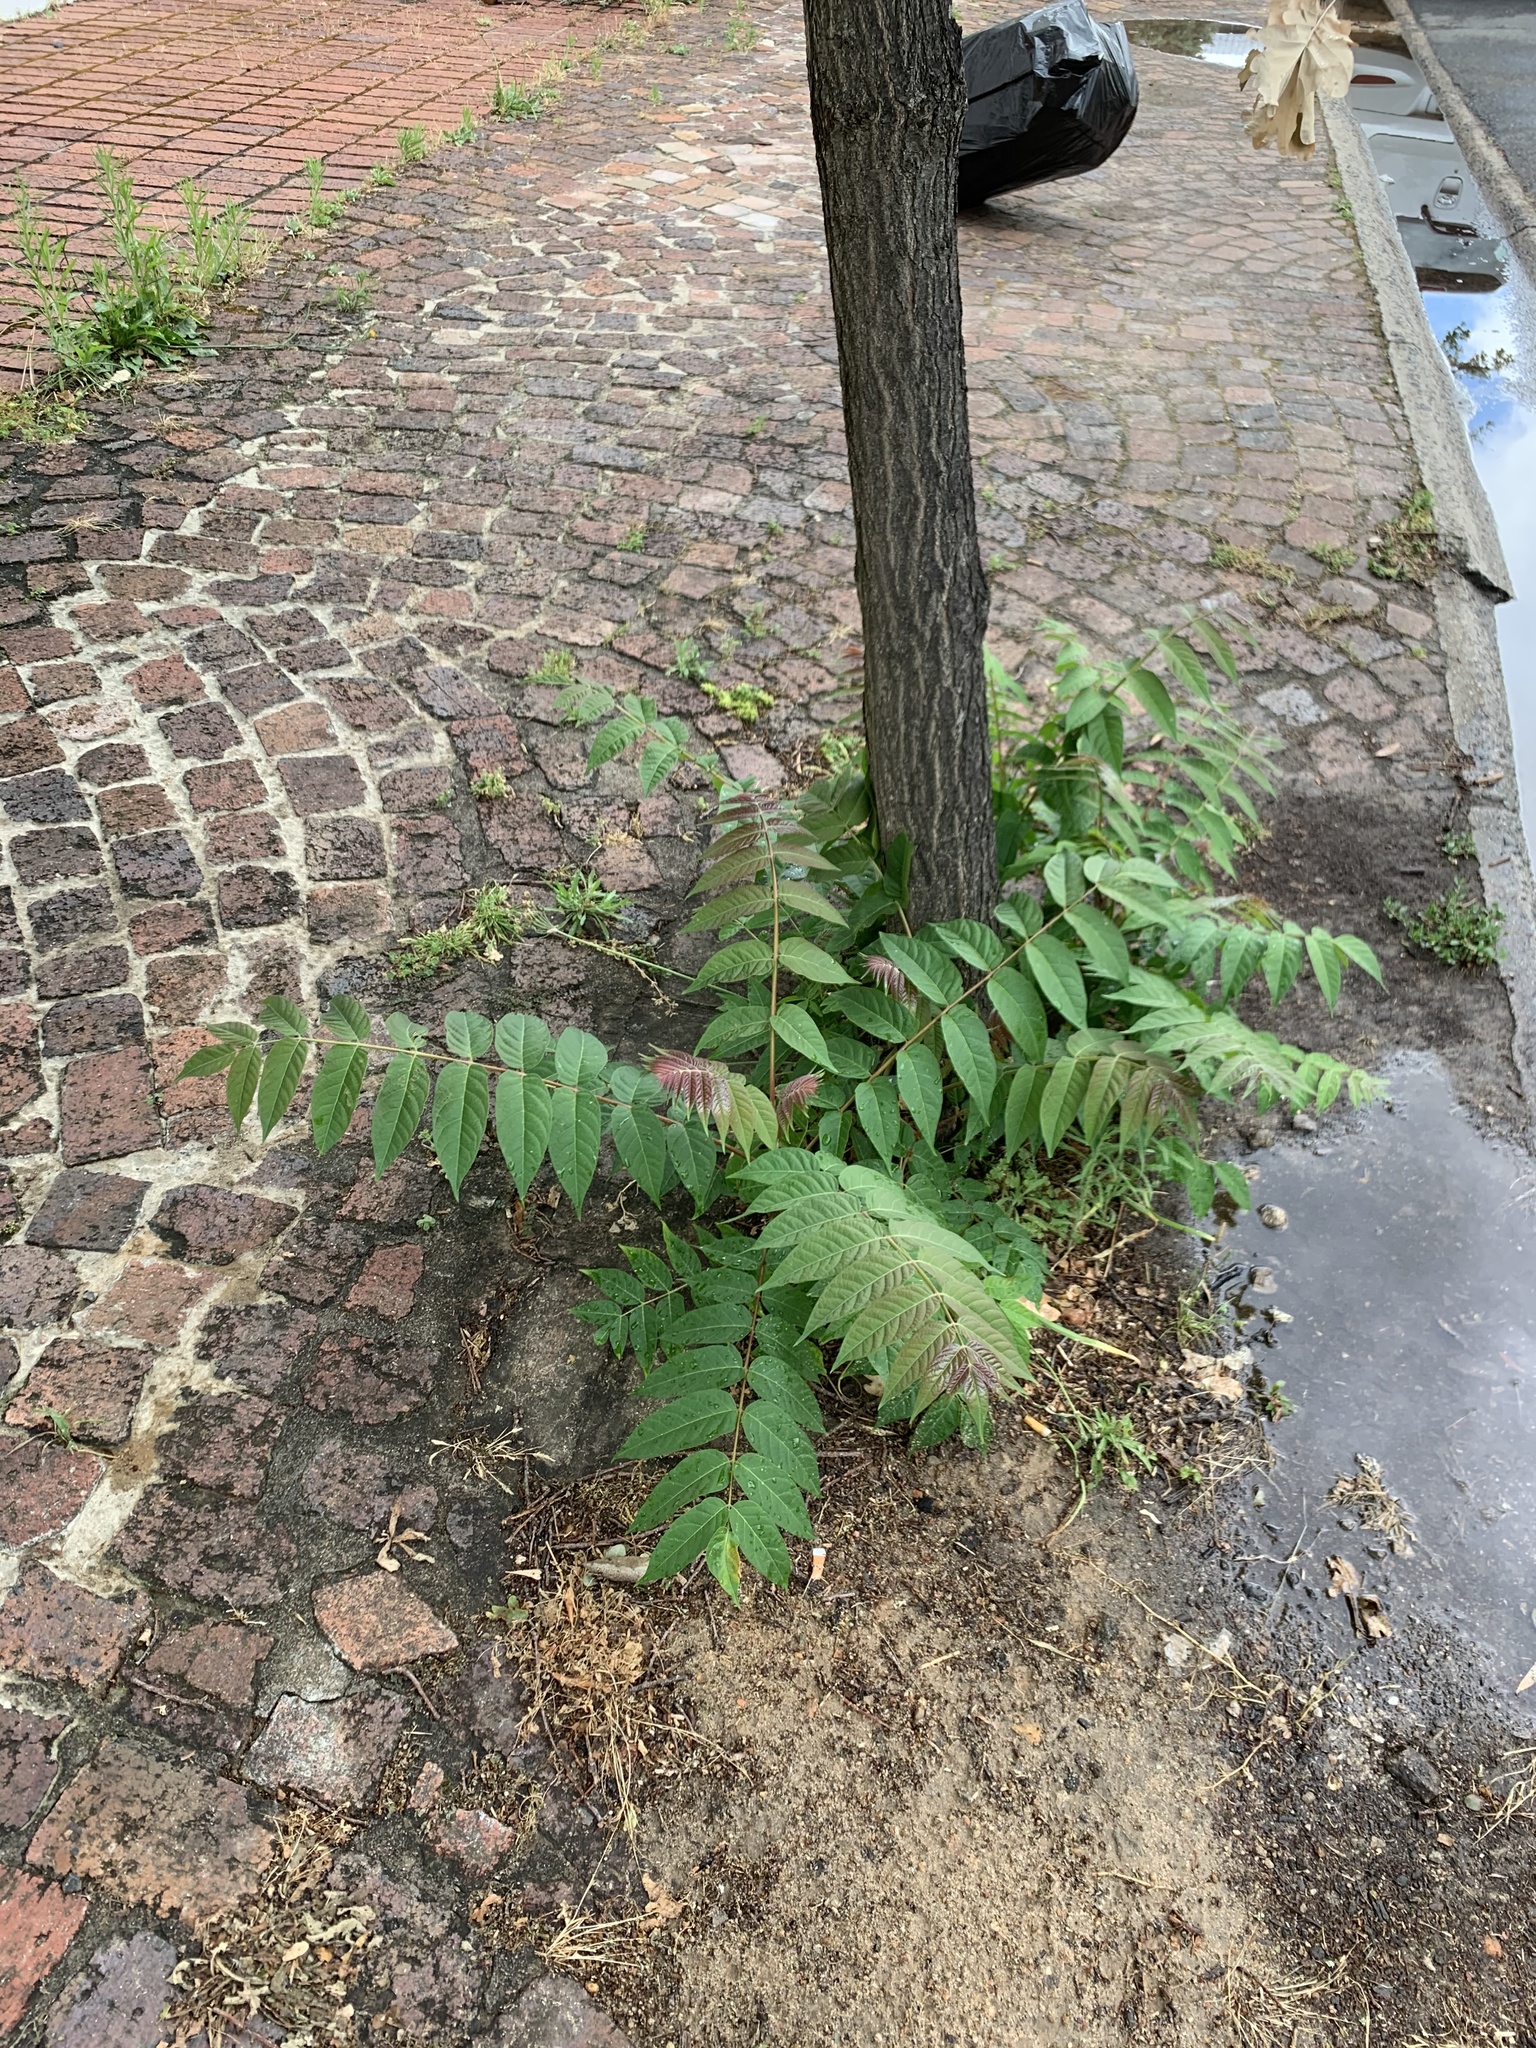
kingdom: Plantae
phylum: Tracheophyta
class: Magnoliopsida
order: Sapindales
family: Simaroubaceae
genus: Ailanthus
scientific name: Ailanthus altissima
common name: Tree-of-heaven
